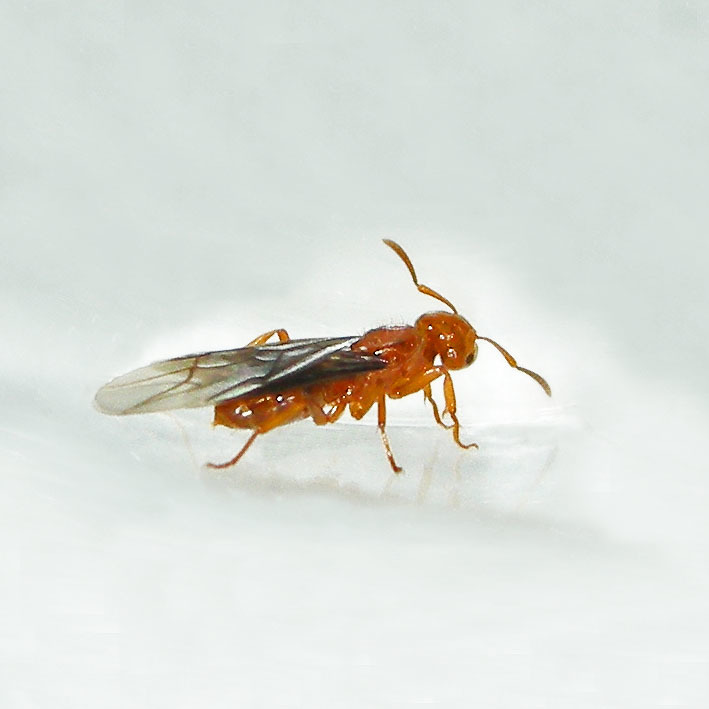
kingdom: Animalia
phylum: Arthropoda
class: Insecta
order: Hymenoptera
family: Formicidae
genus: Acanthomyops
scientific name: Acanthomyops interjectus
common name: Larger yellow ant
